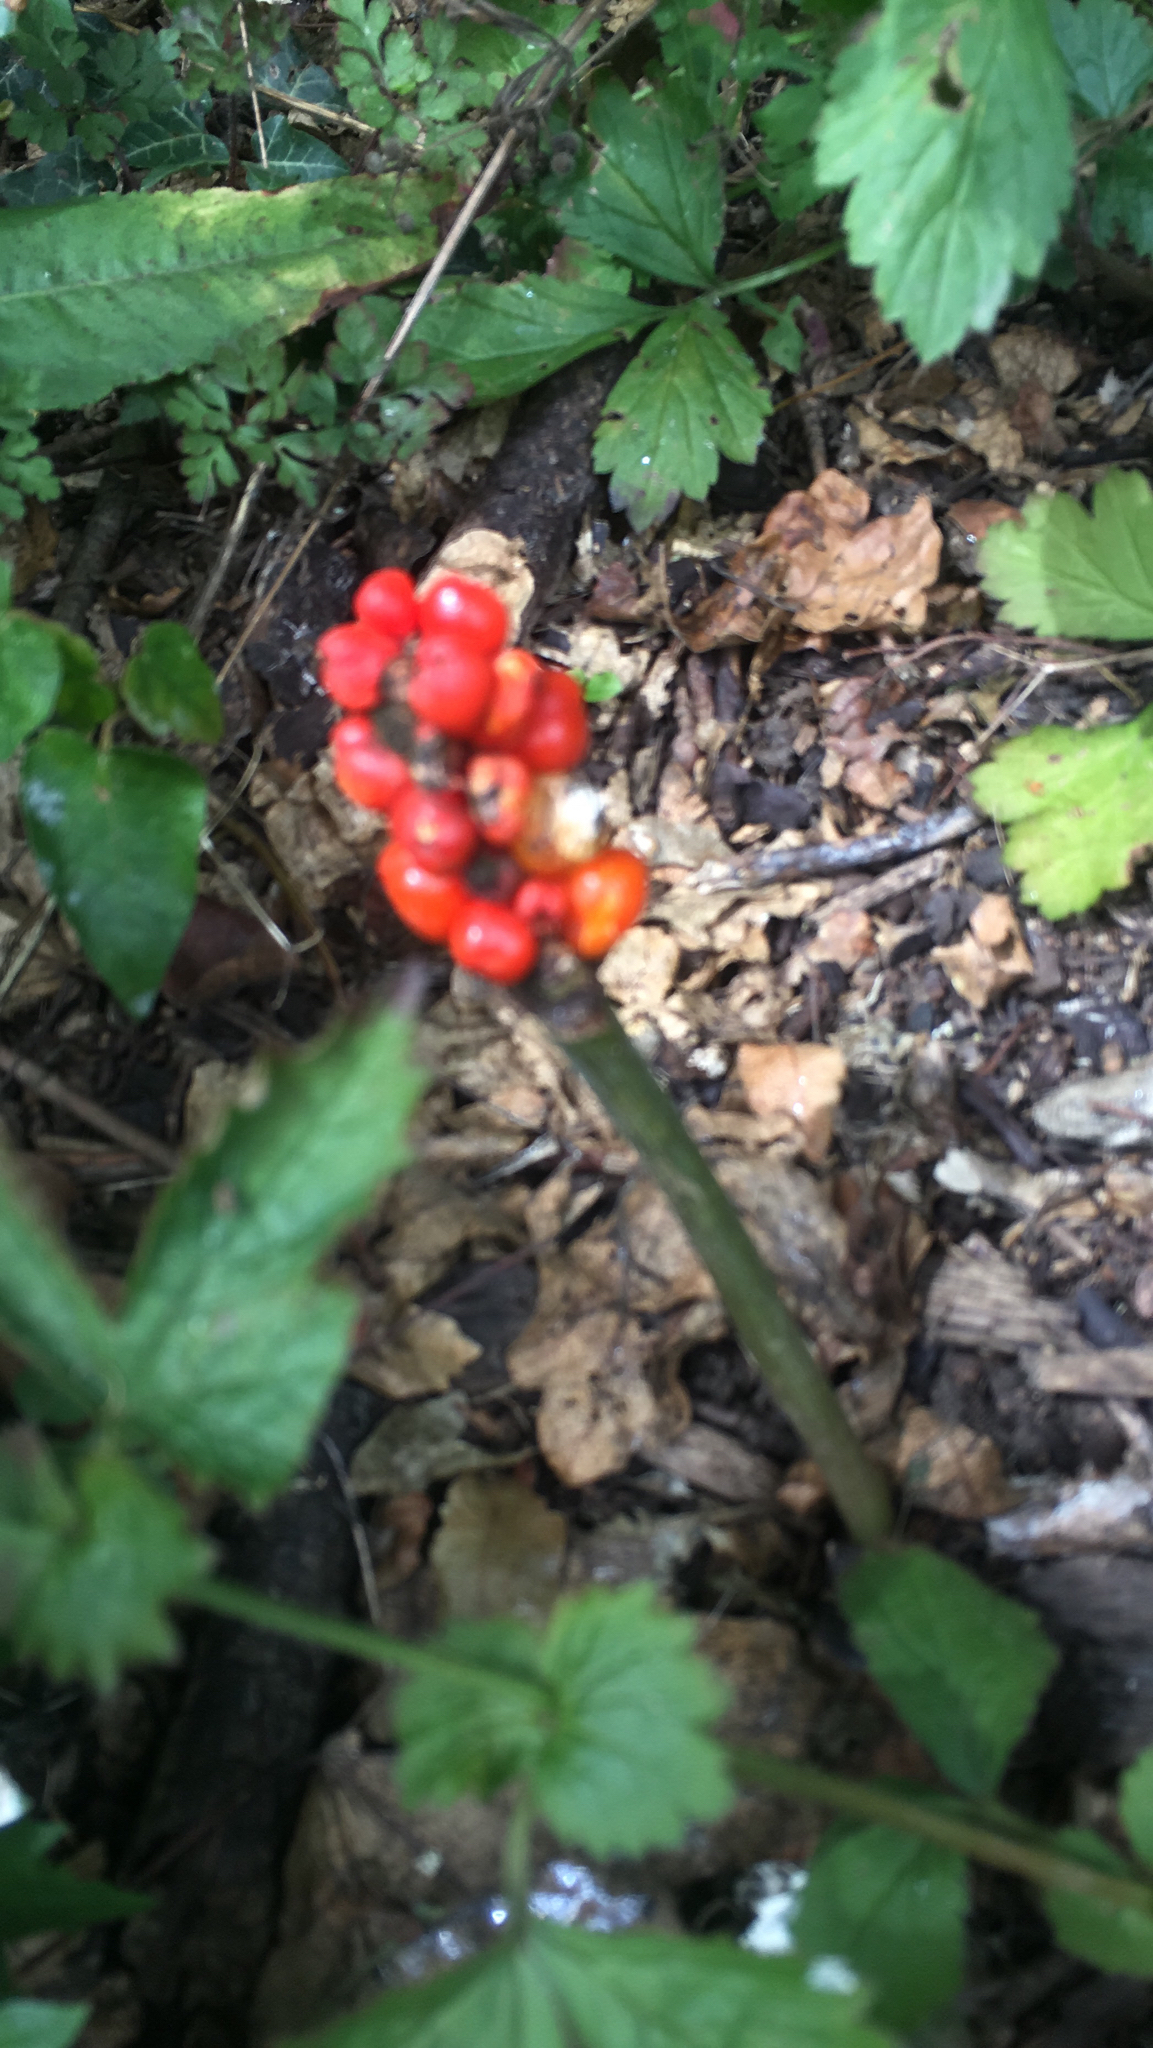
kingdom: Plantae
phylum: Tracheophyta
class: Liliopsida
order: Alismatales
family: Araceae
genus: Arum
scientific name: Arum maculatum
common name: Lords-and-ladies
